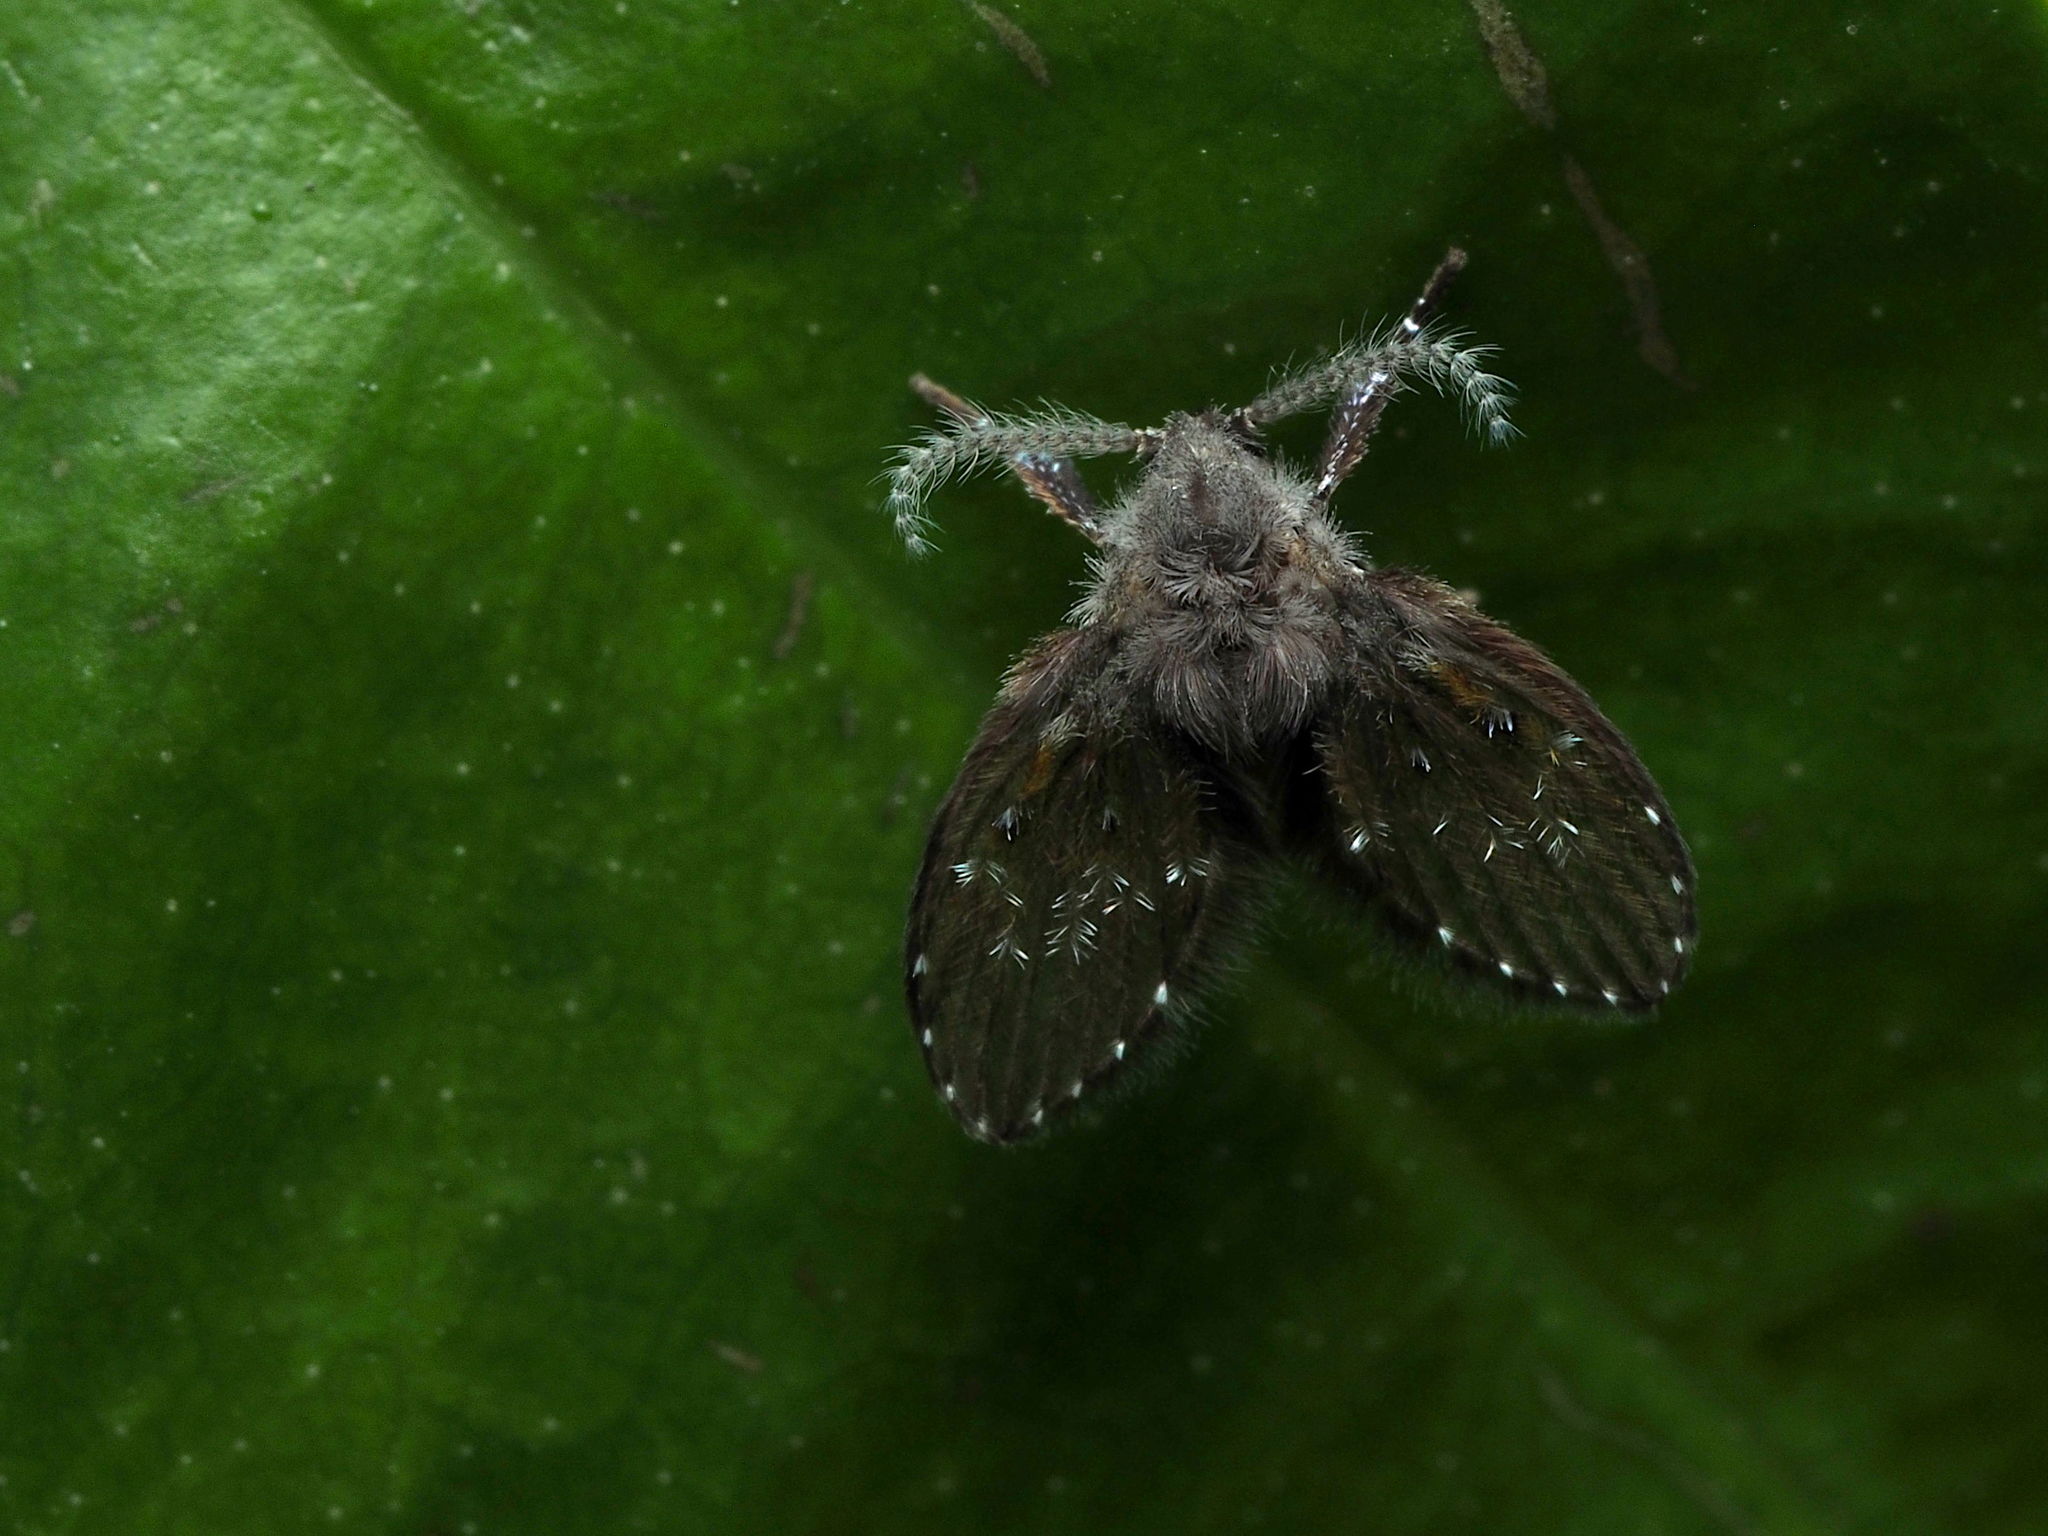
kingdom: Animalia
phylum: Arthropoda
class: Insecta
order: Diptera
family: Psychodidae
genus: Clogmia
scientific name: Clogmia albipunctatus
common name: White-spotted moth fly
